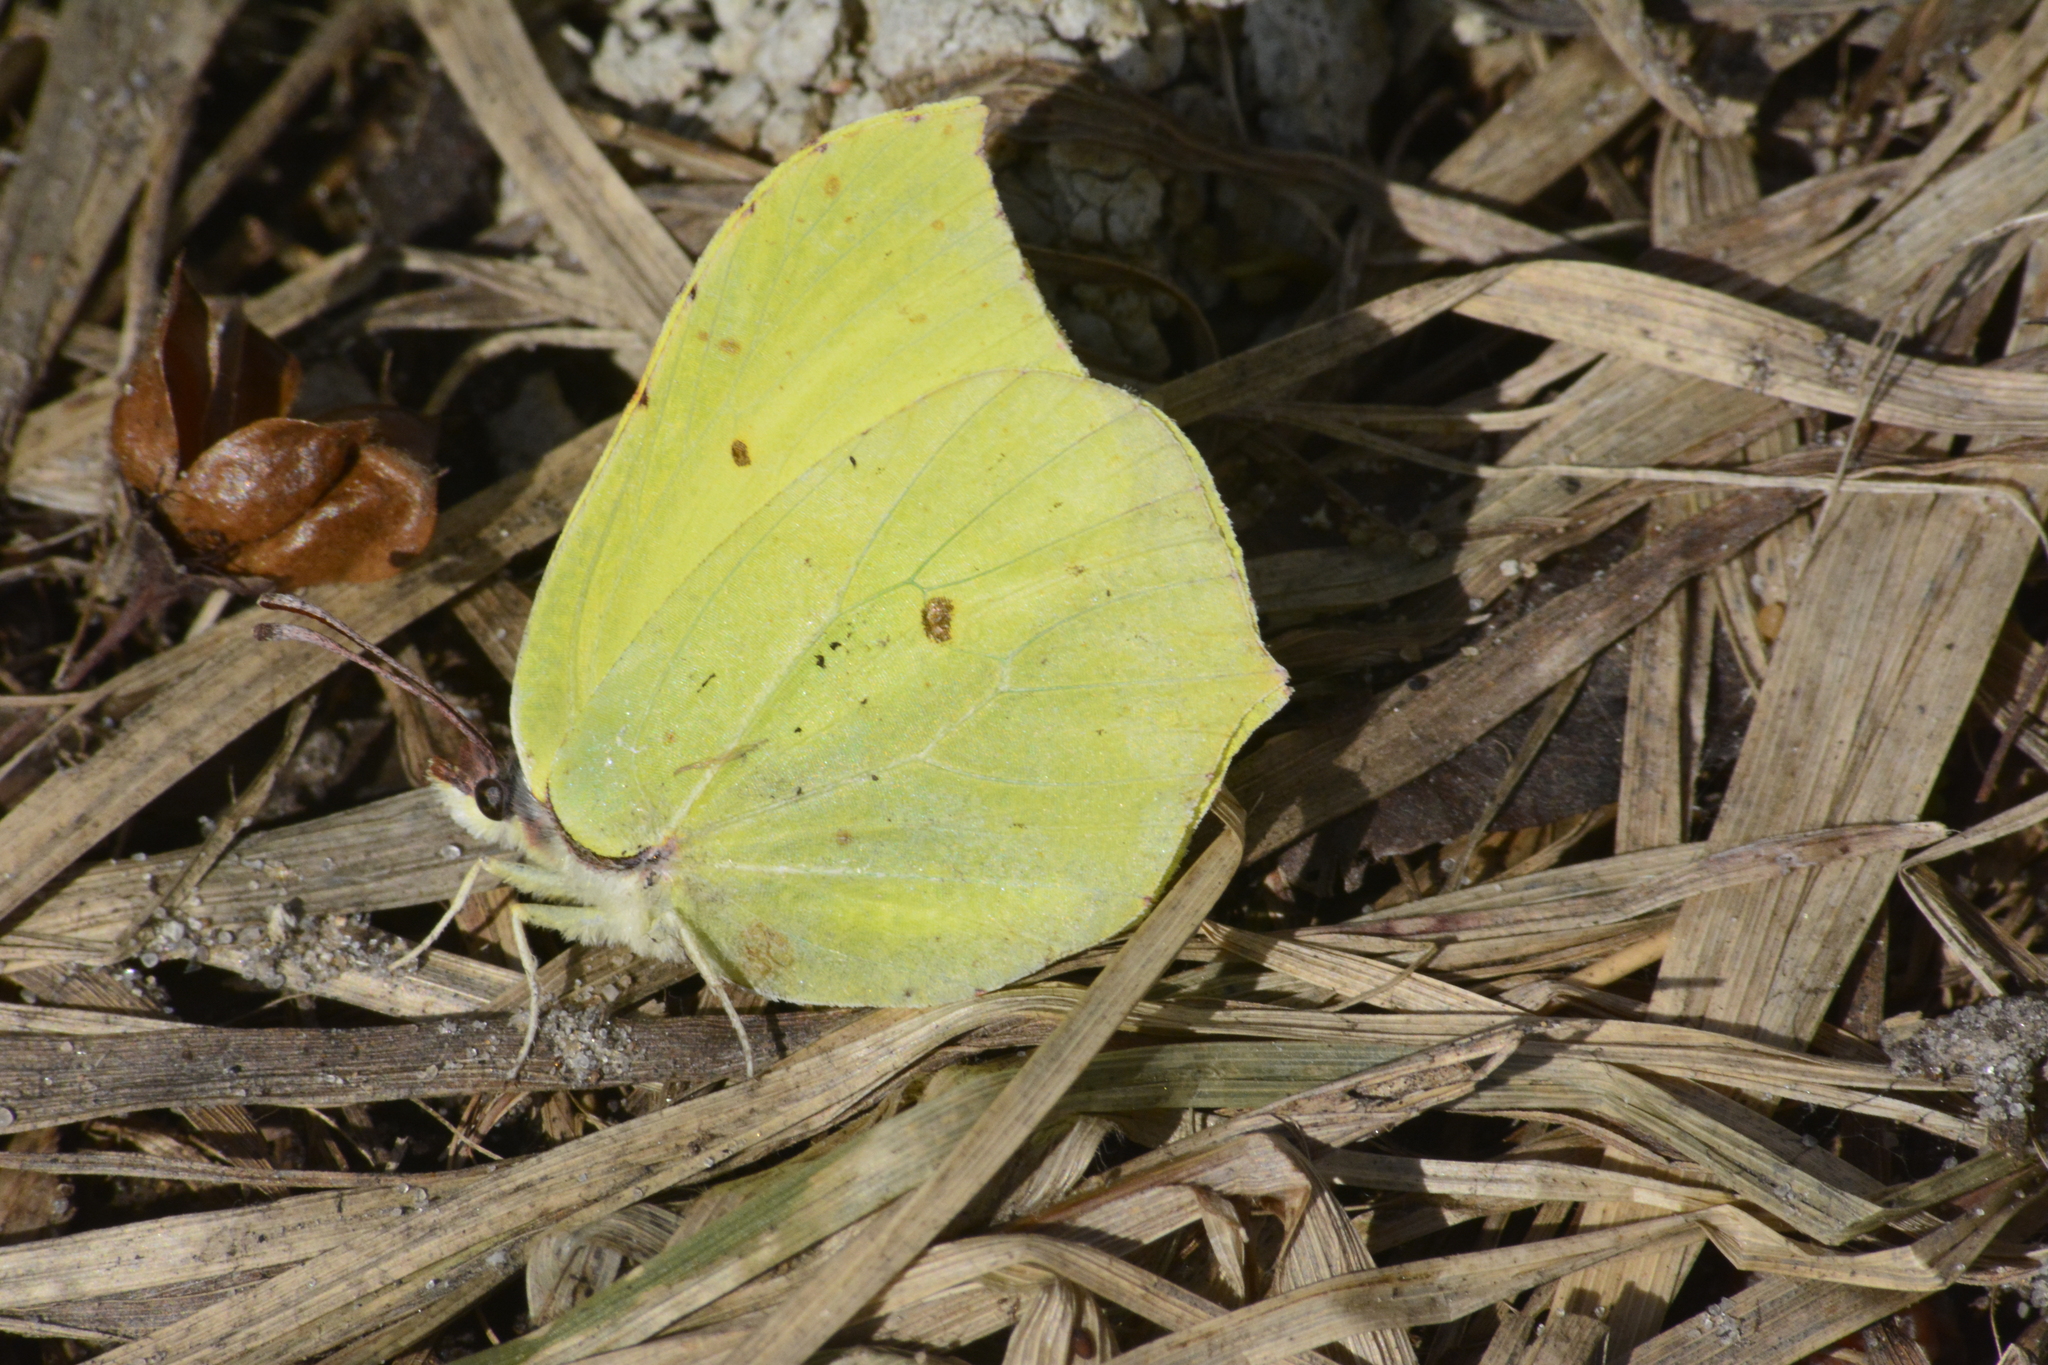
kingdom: Animalia
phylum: Arthropoda
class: Insecta
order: Lepidoptera
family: Pieridae
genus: Gonepteryx
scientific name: Gonepteryx rhamni
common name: Brimstone
